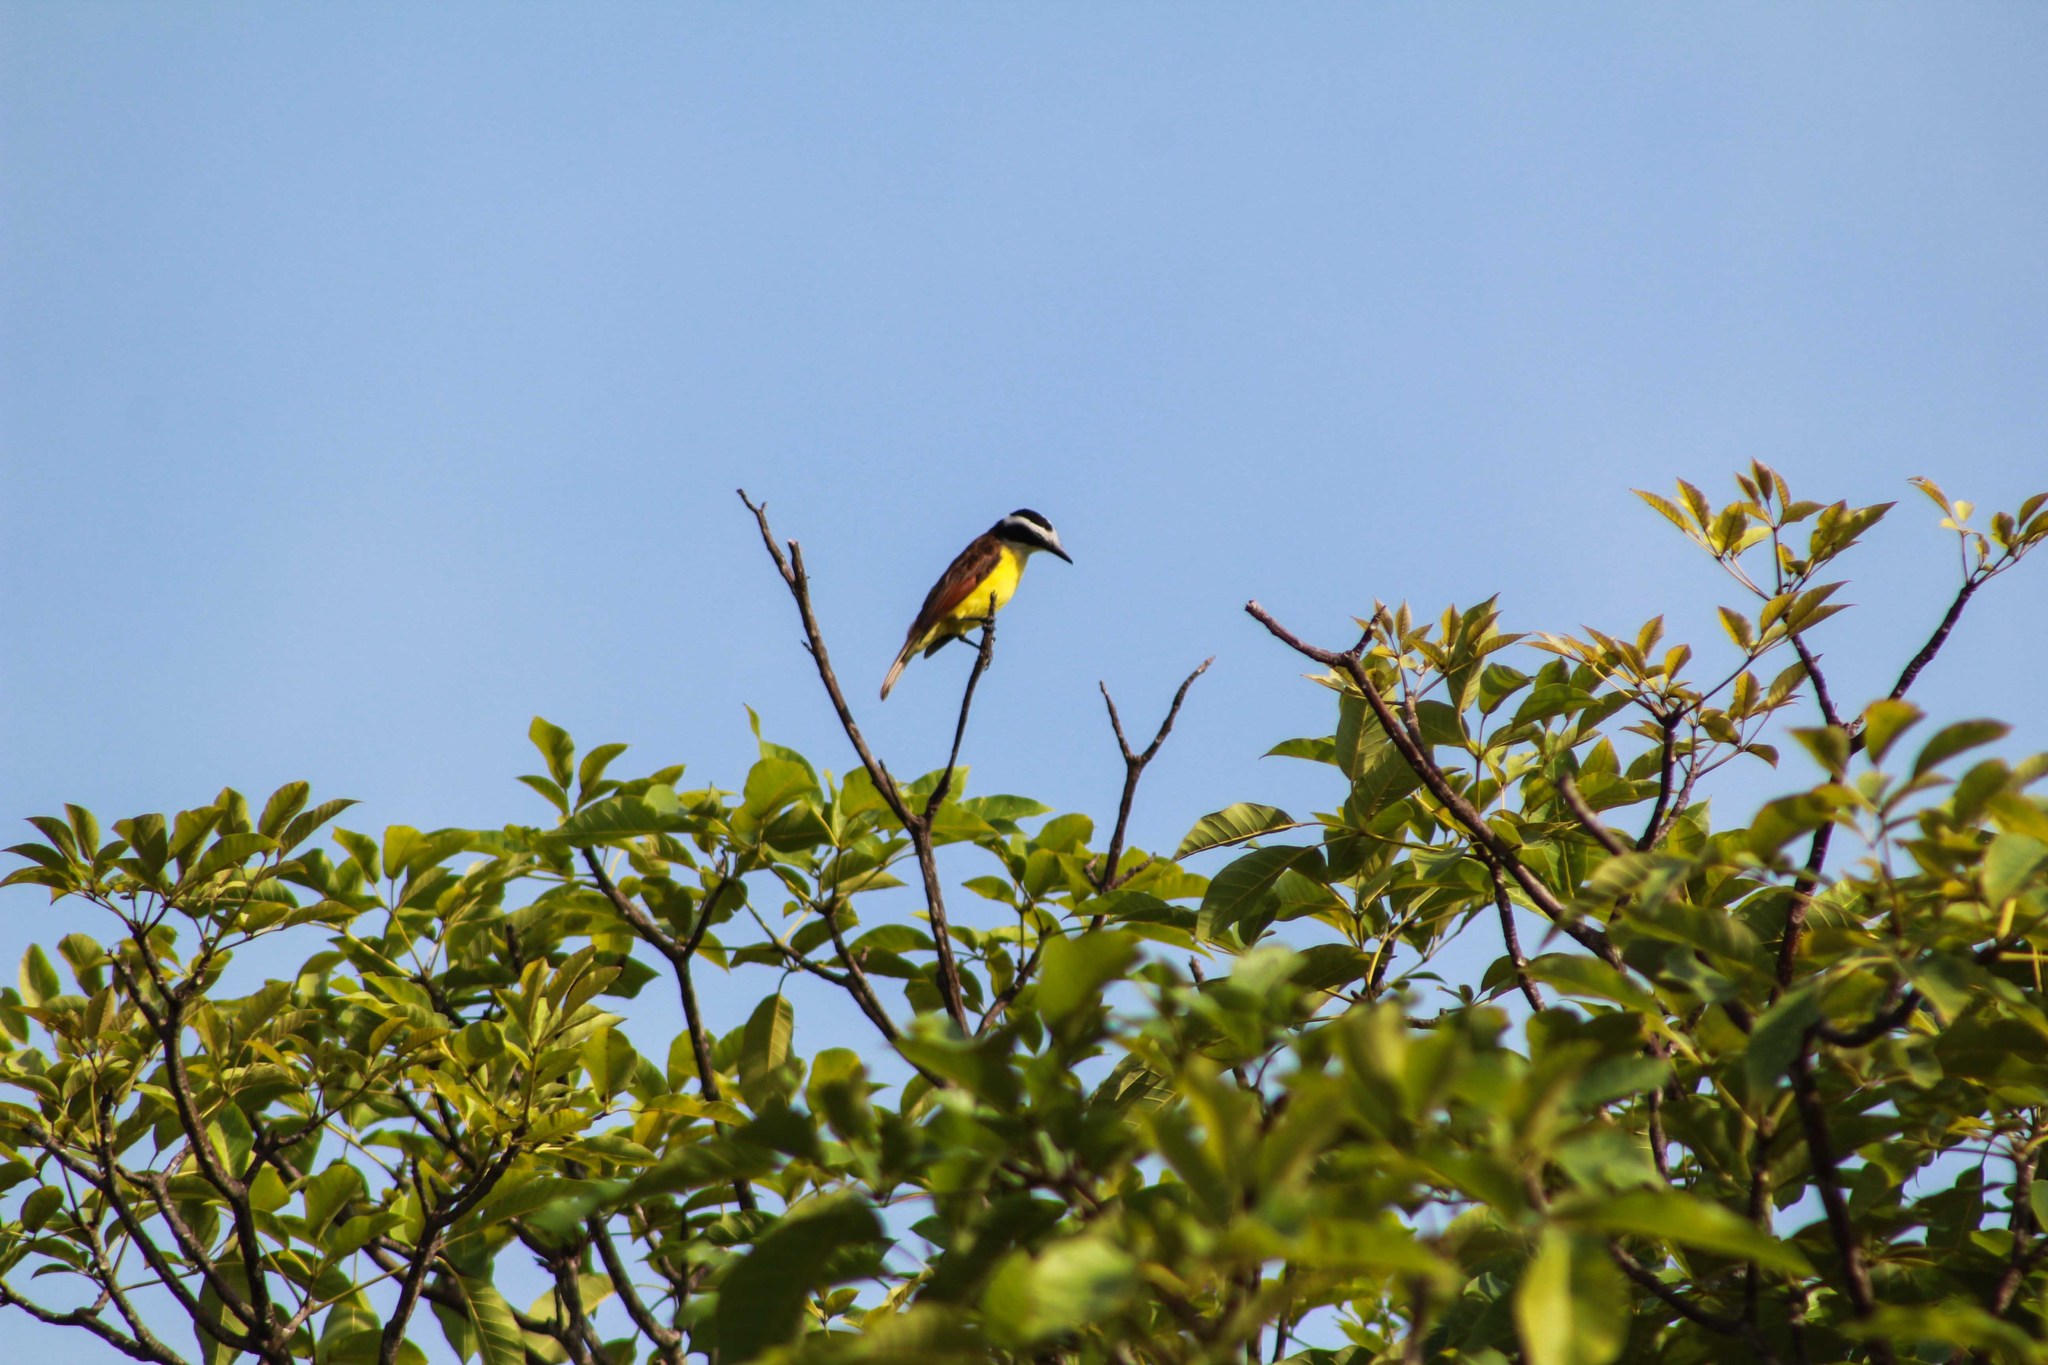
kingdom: Animalia
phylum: Chordata
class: Aves
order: Passeriformes
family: Tyrannidae
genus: Pitangus
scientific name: Pitangus sulphuratus
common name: Great kiskadee
